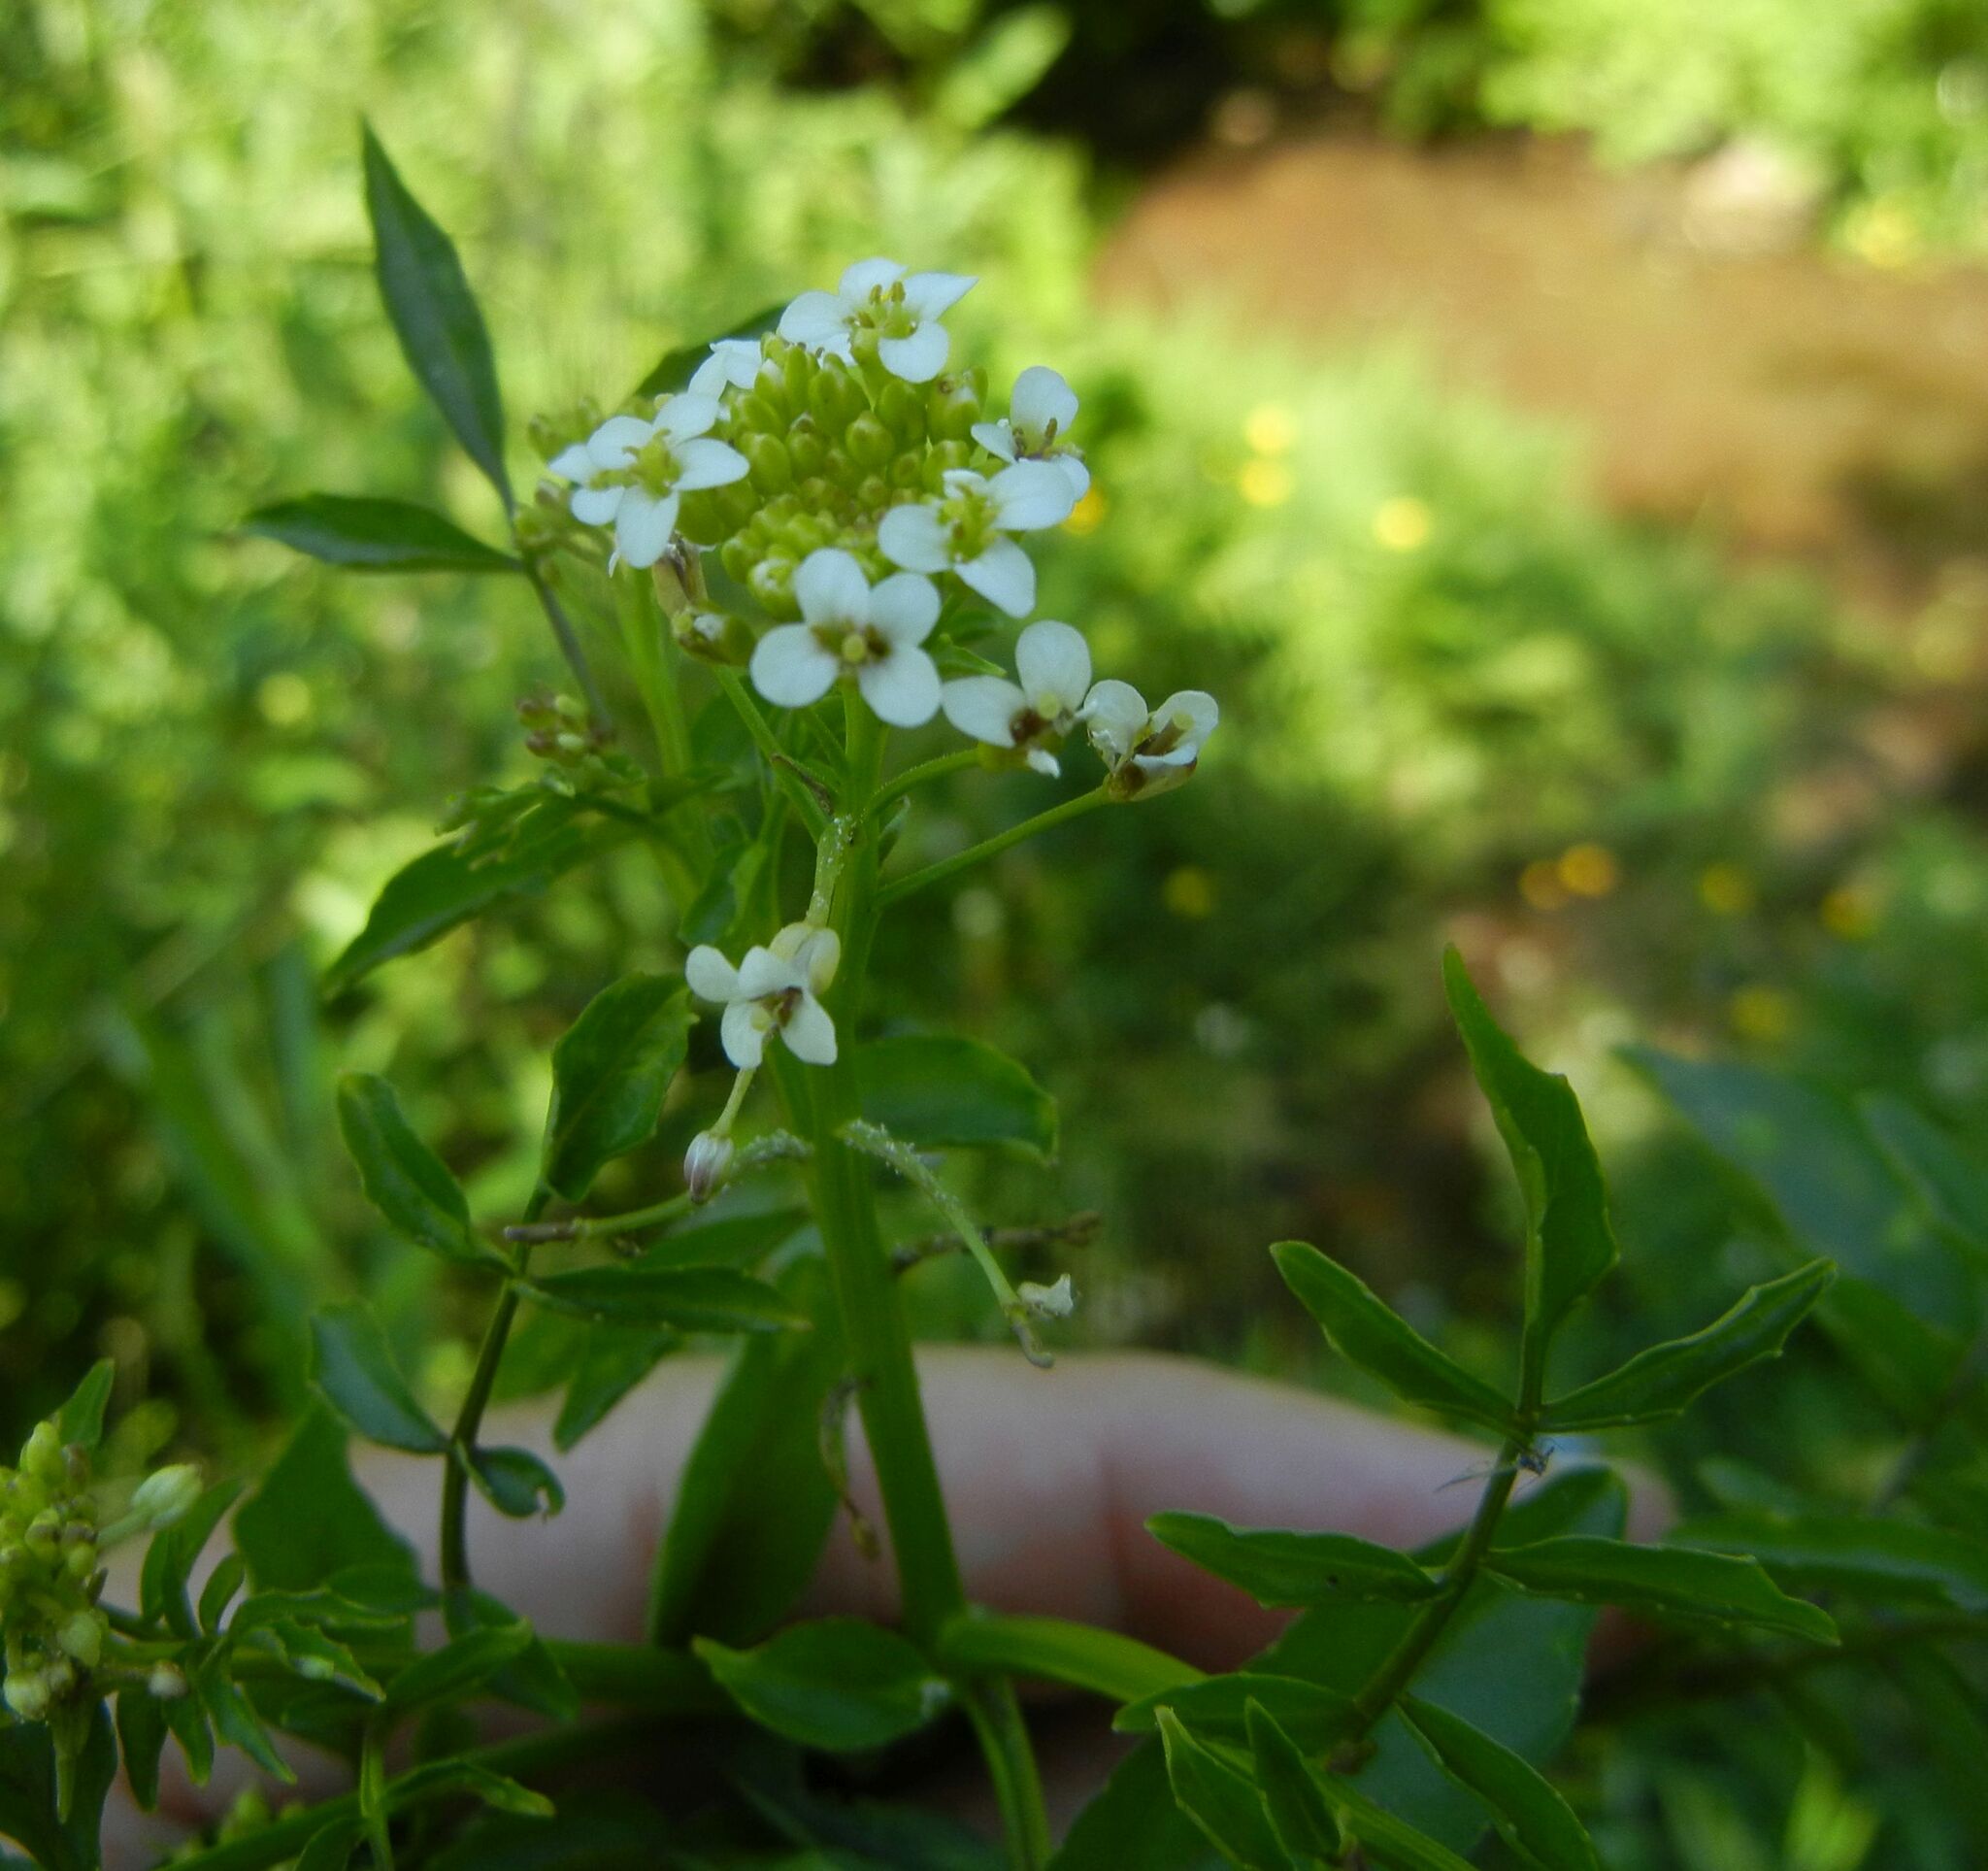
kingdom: Plantae
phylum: Tracheophyta
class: Magnoliopsida
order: Brassicales
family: Brassicaceae
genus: Nasturtium
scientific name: Nasturtium officinale
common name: Watercress
